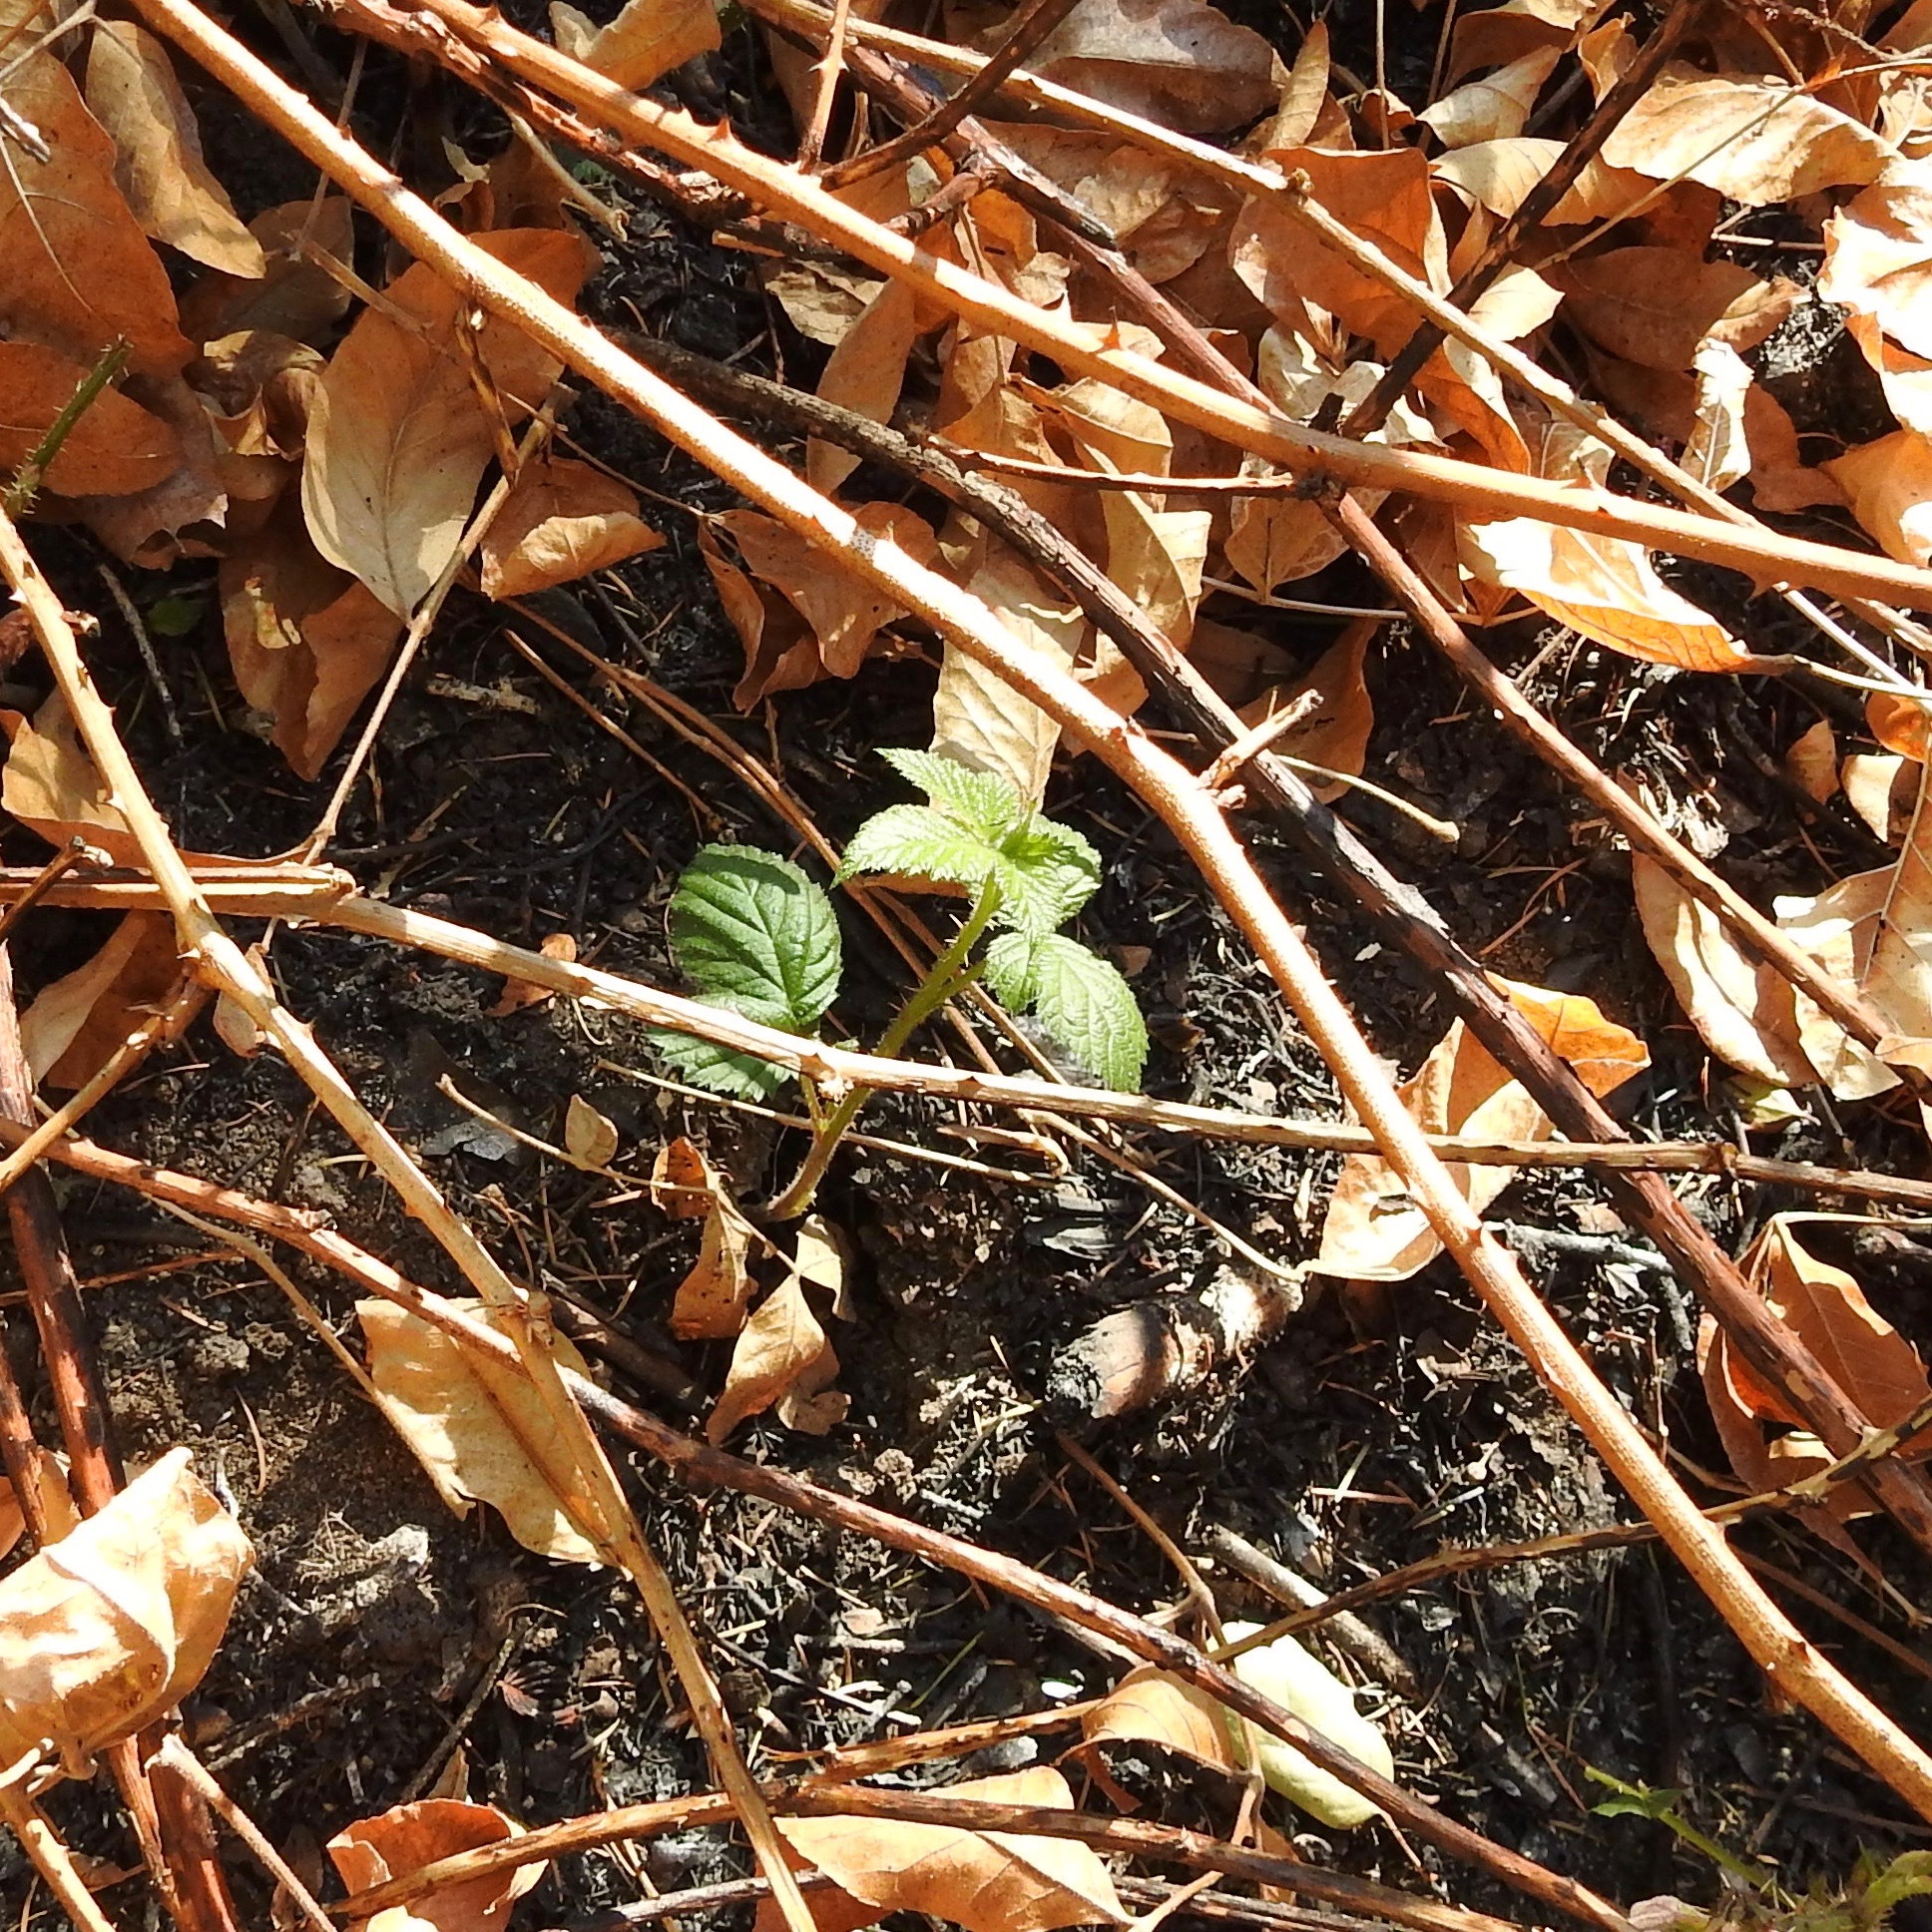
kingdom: Plantae
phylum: Tracheophyta
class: Magnoliopsida
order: Rosales
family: Rosaceae
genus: Rubus
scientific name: Rubus armeniacus
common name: Himalayan blackberry
